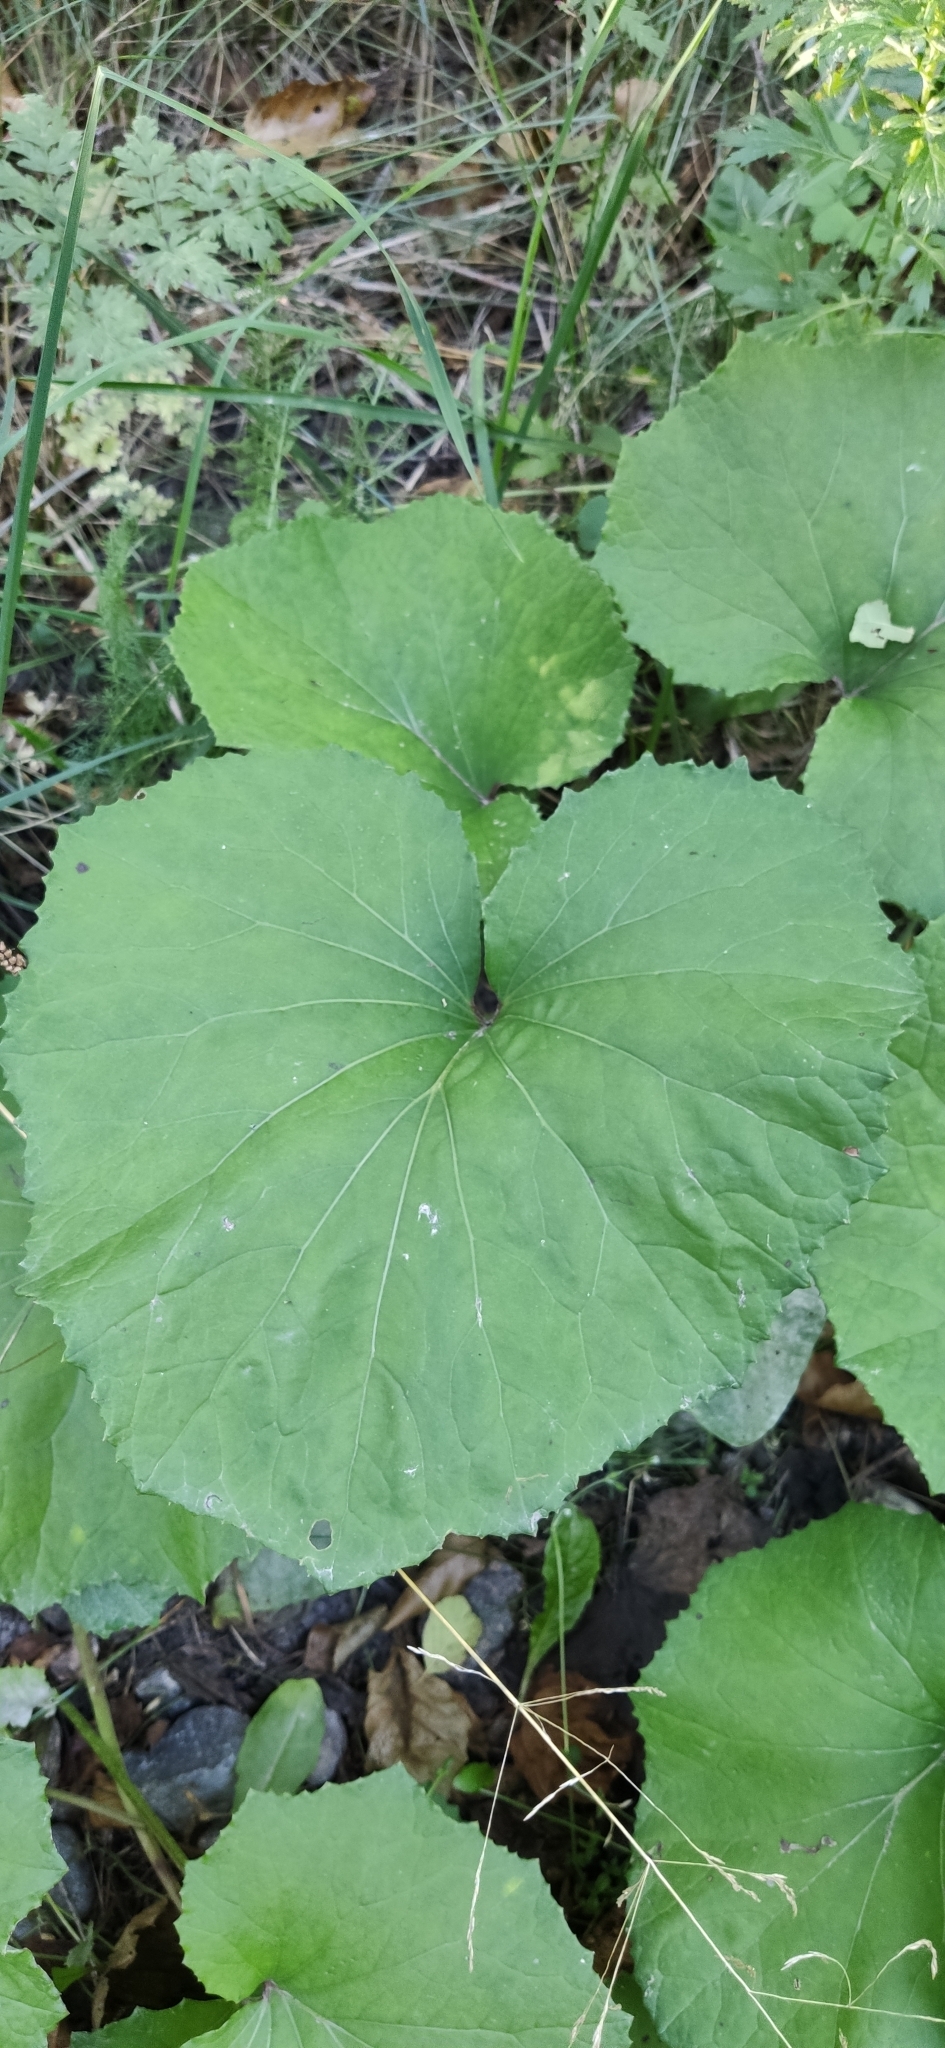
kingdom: Plantae
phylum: Tracheophyta
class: Magnoliopsida
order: Asterales
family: Asteraceae
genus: Tussilago
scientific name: Tussilago farfara
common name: Coltsfoot
